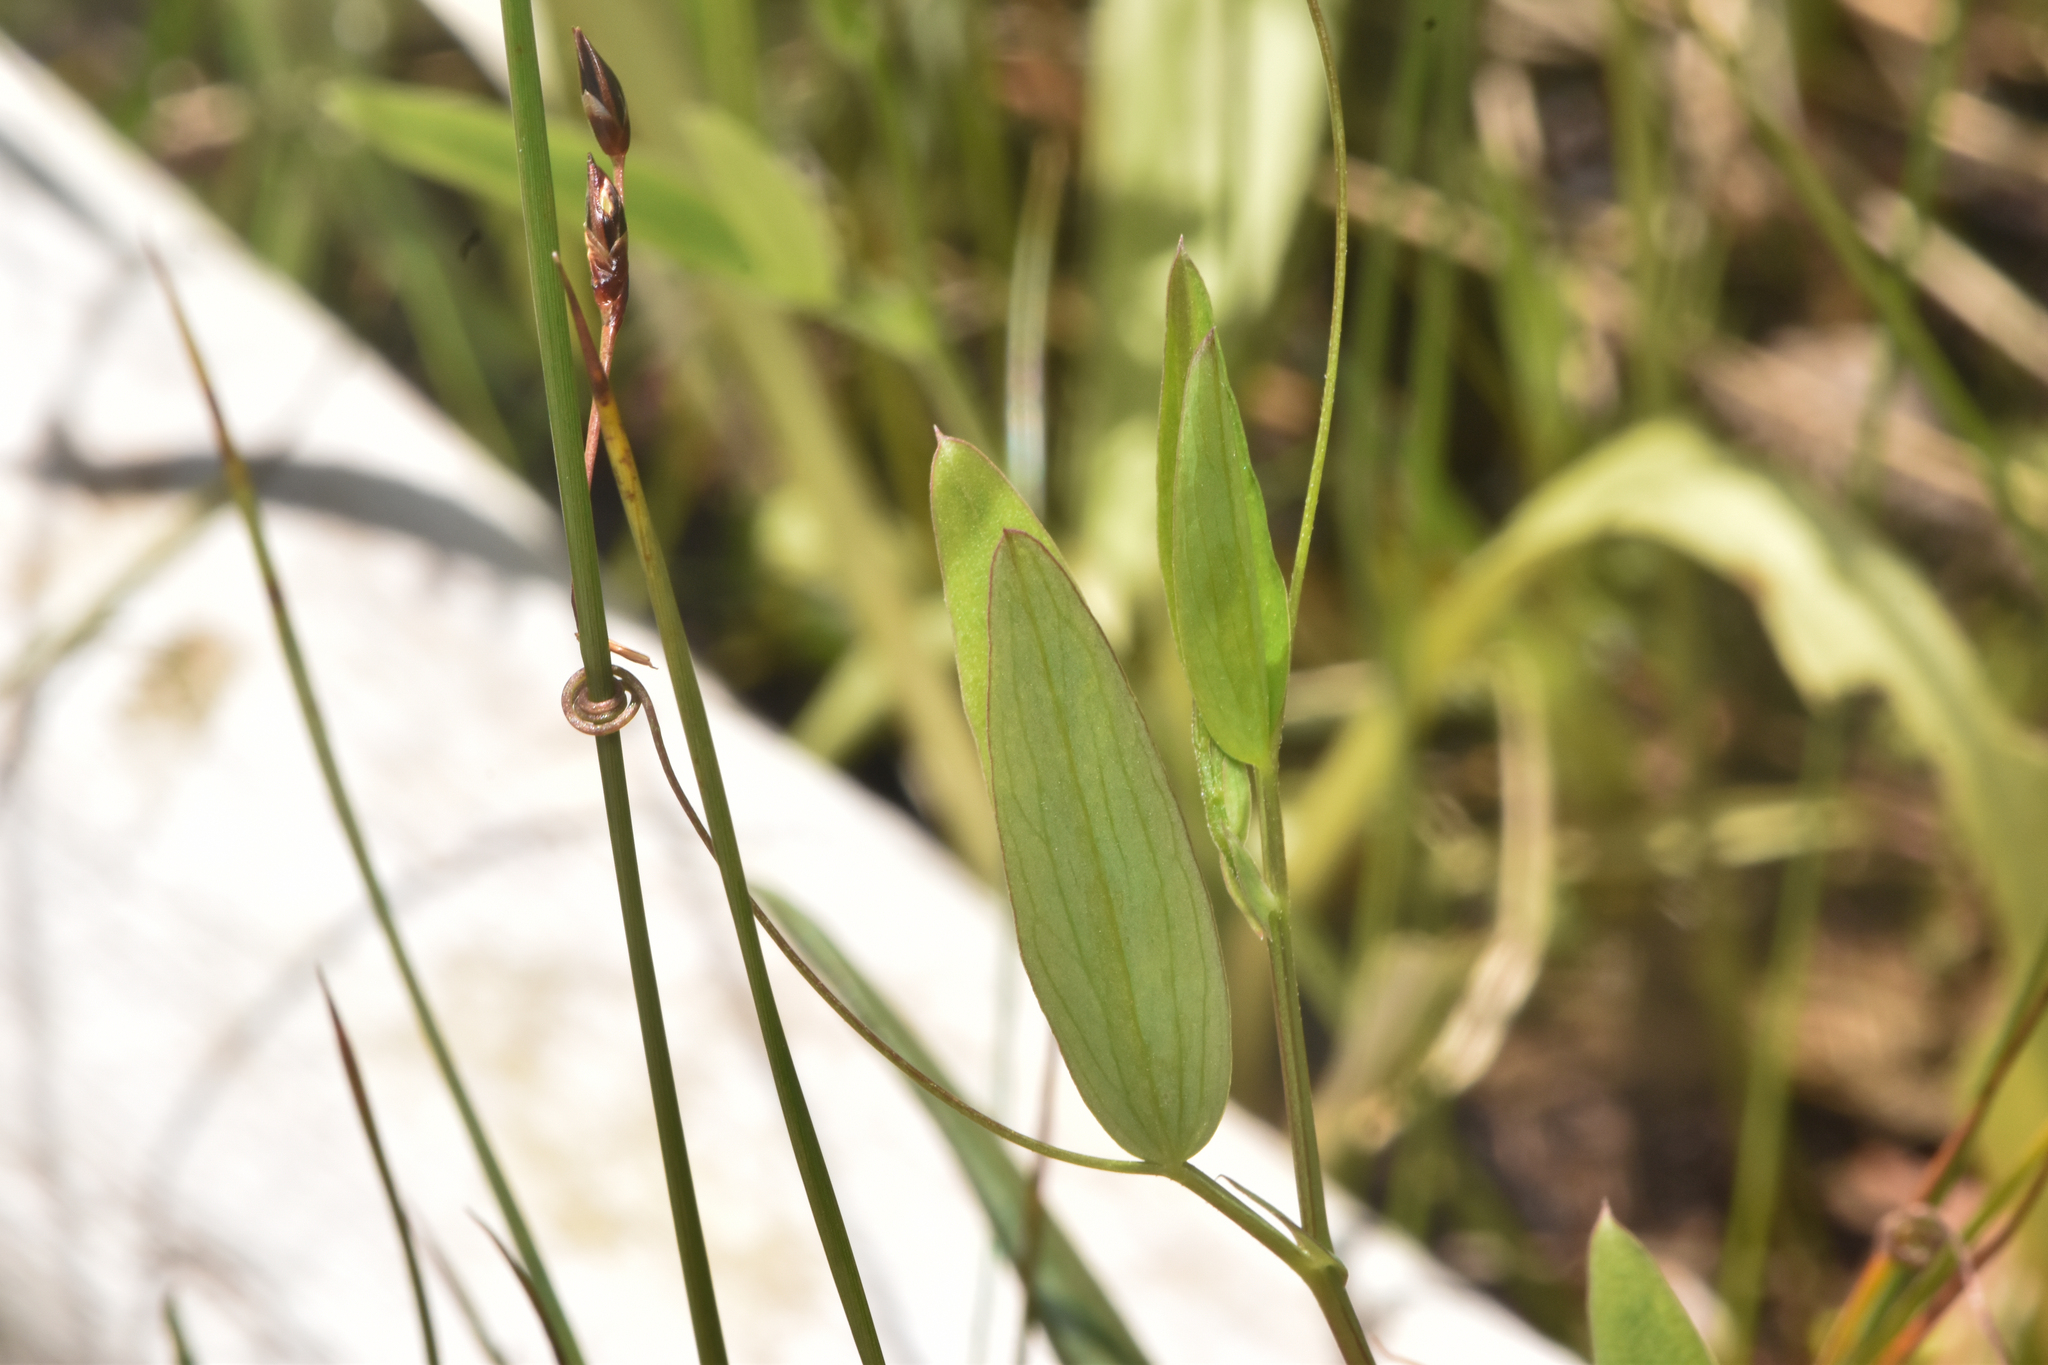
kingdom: Plantae
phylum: Tracheophyta
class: Magnoliopsida
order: Fabales
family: Fabaceae
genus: Lathyrus
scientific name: Lathyrus palustris
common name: Marsh pea
